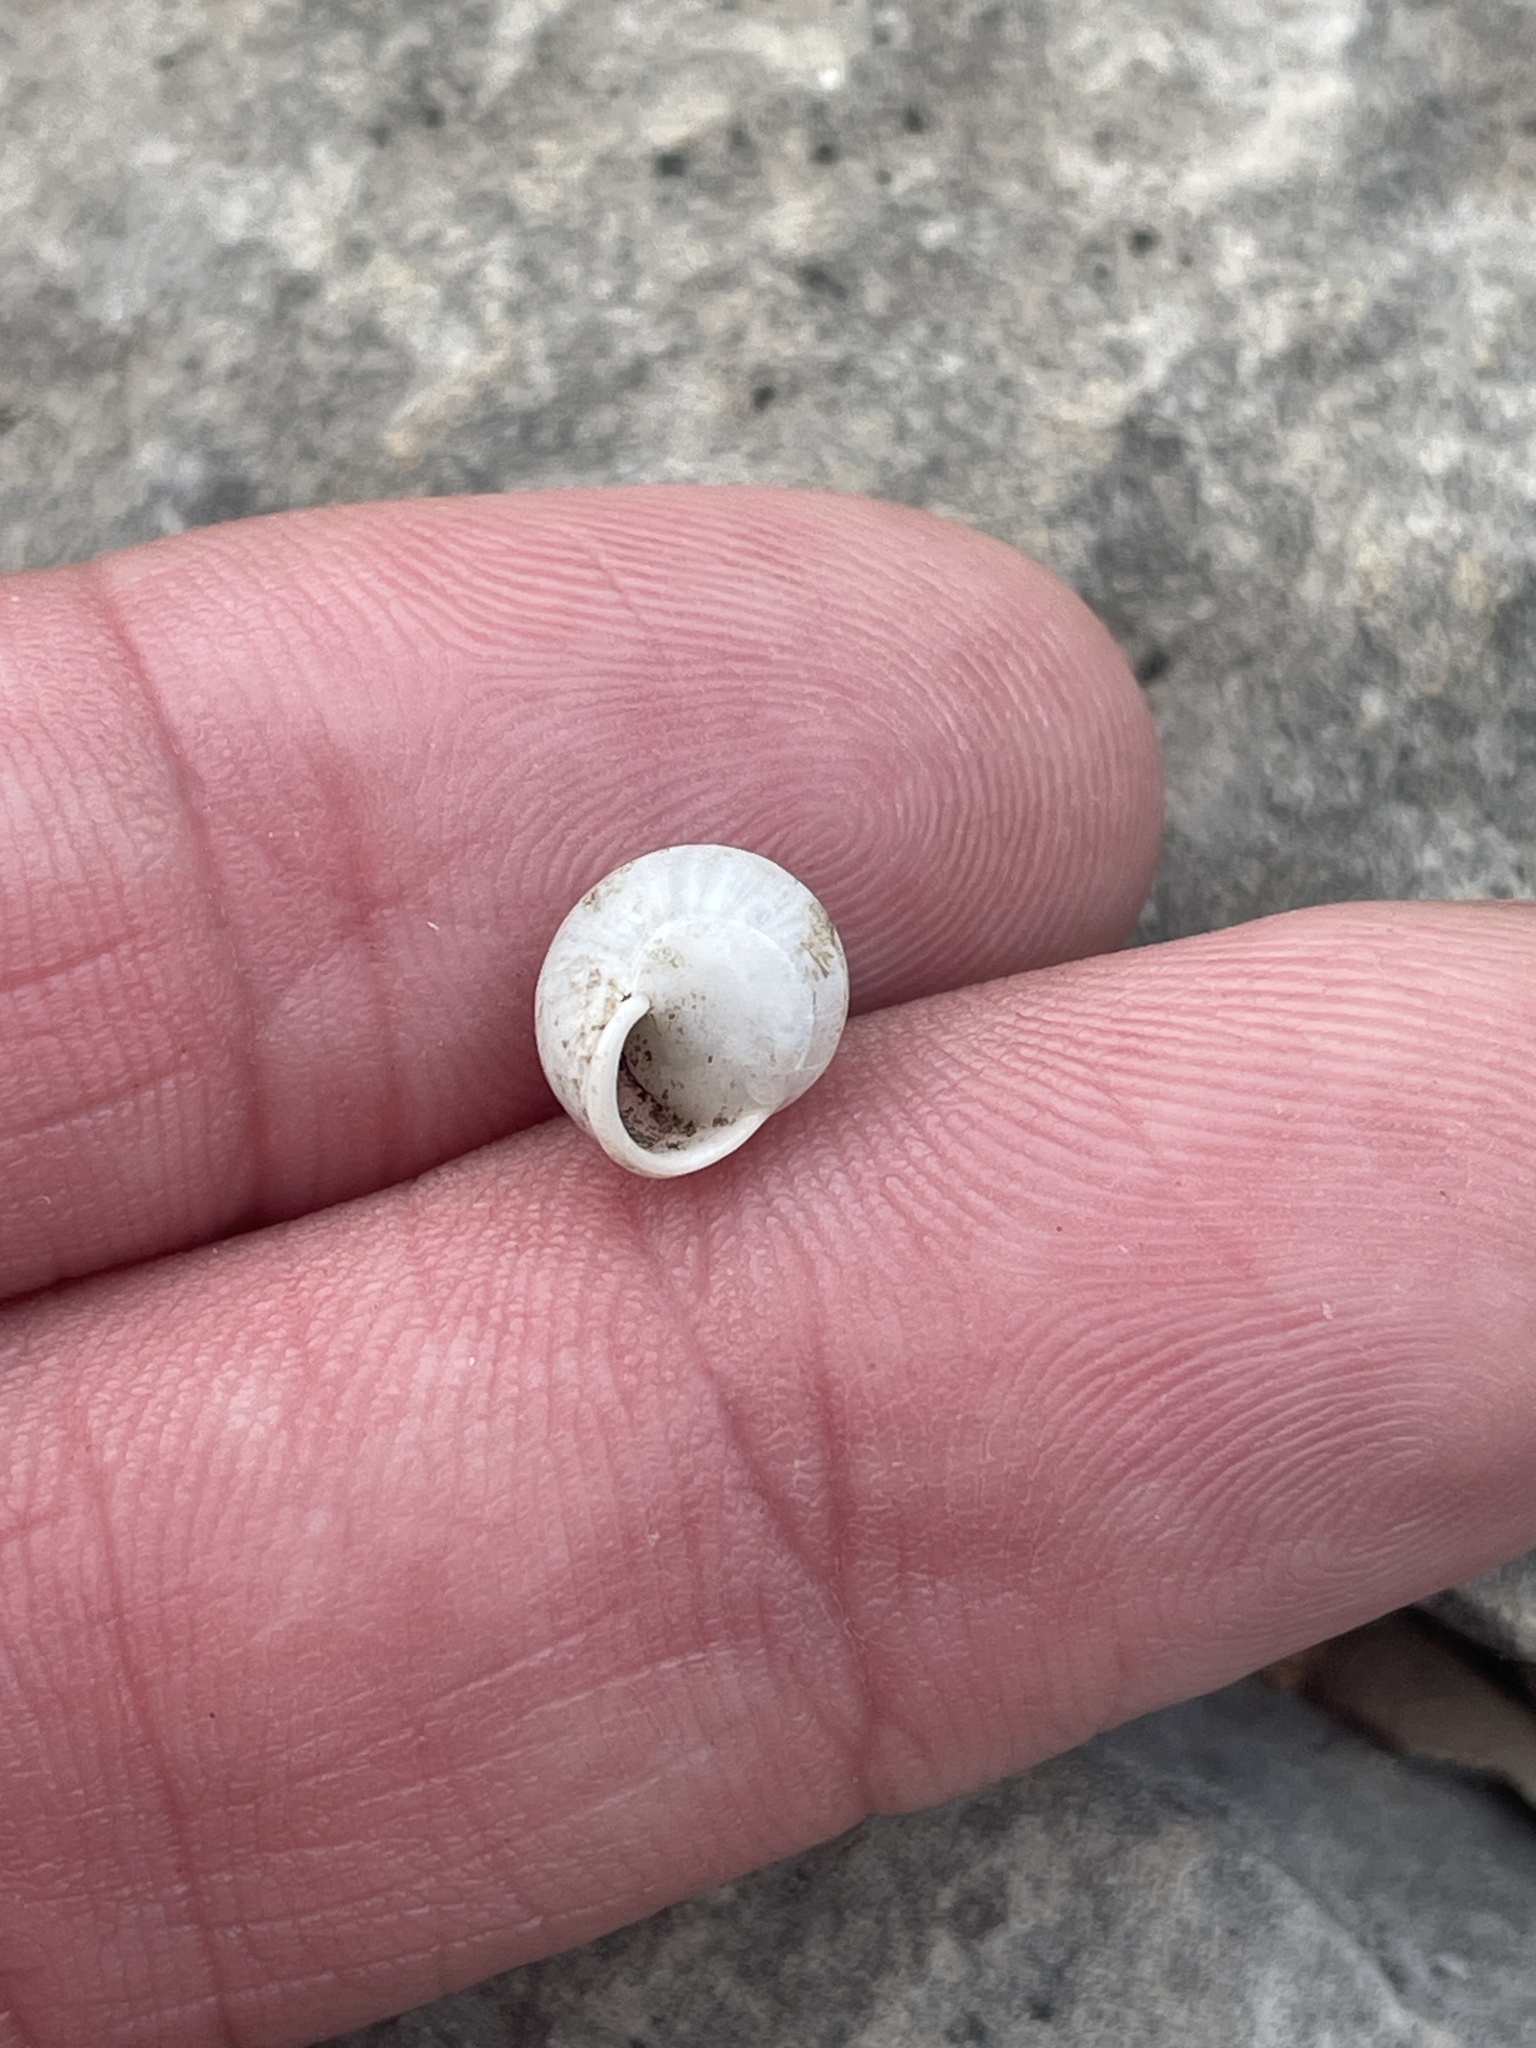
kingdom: Animalia
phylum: Mollusca
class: Gastropoda
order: Cycloneritida
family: Helicinidae
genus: Helicina
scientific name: Helicina orbiculata
